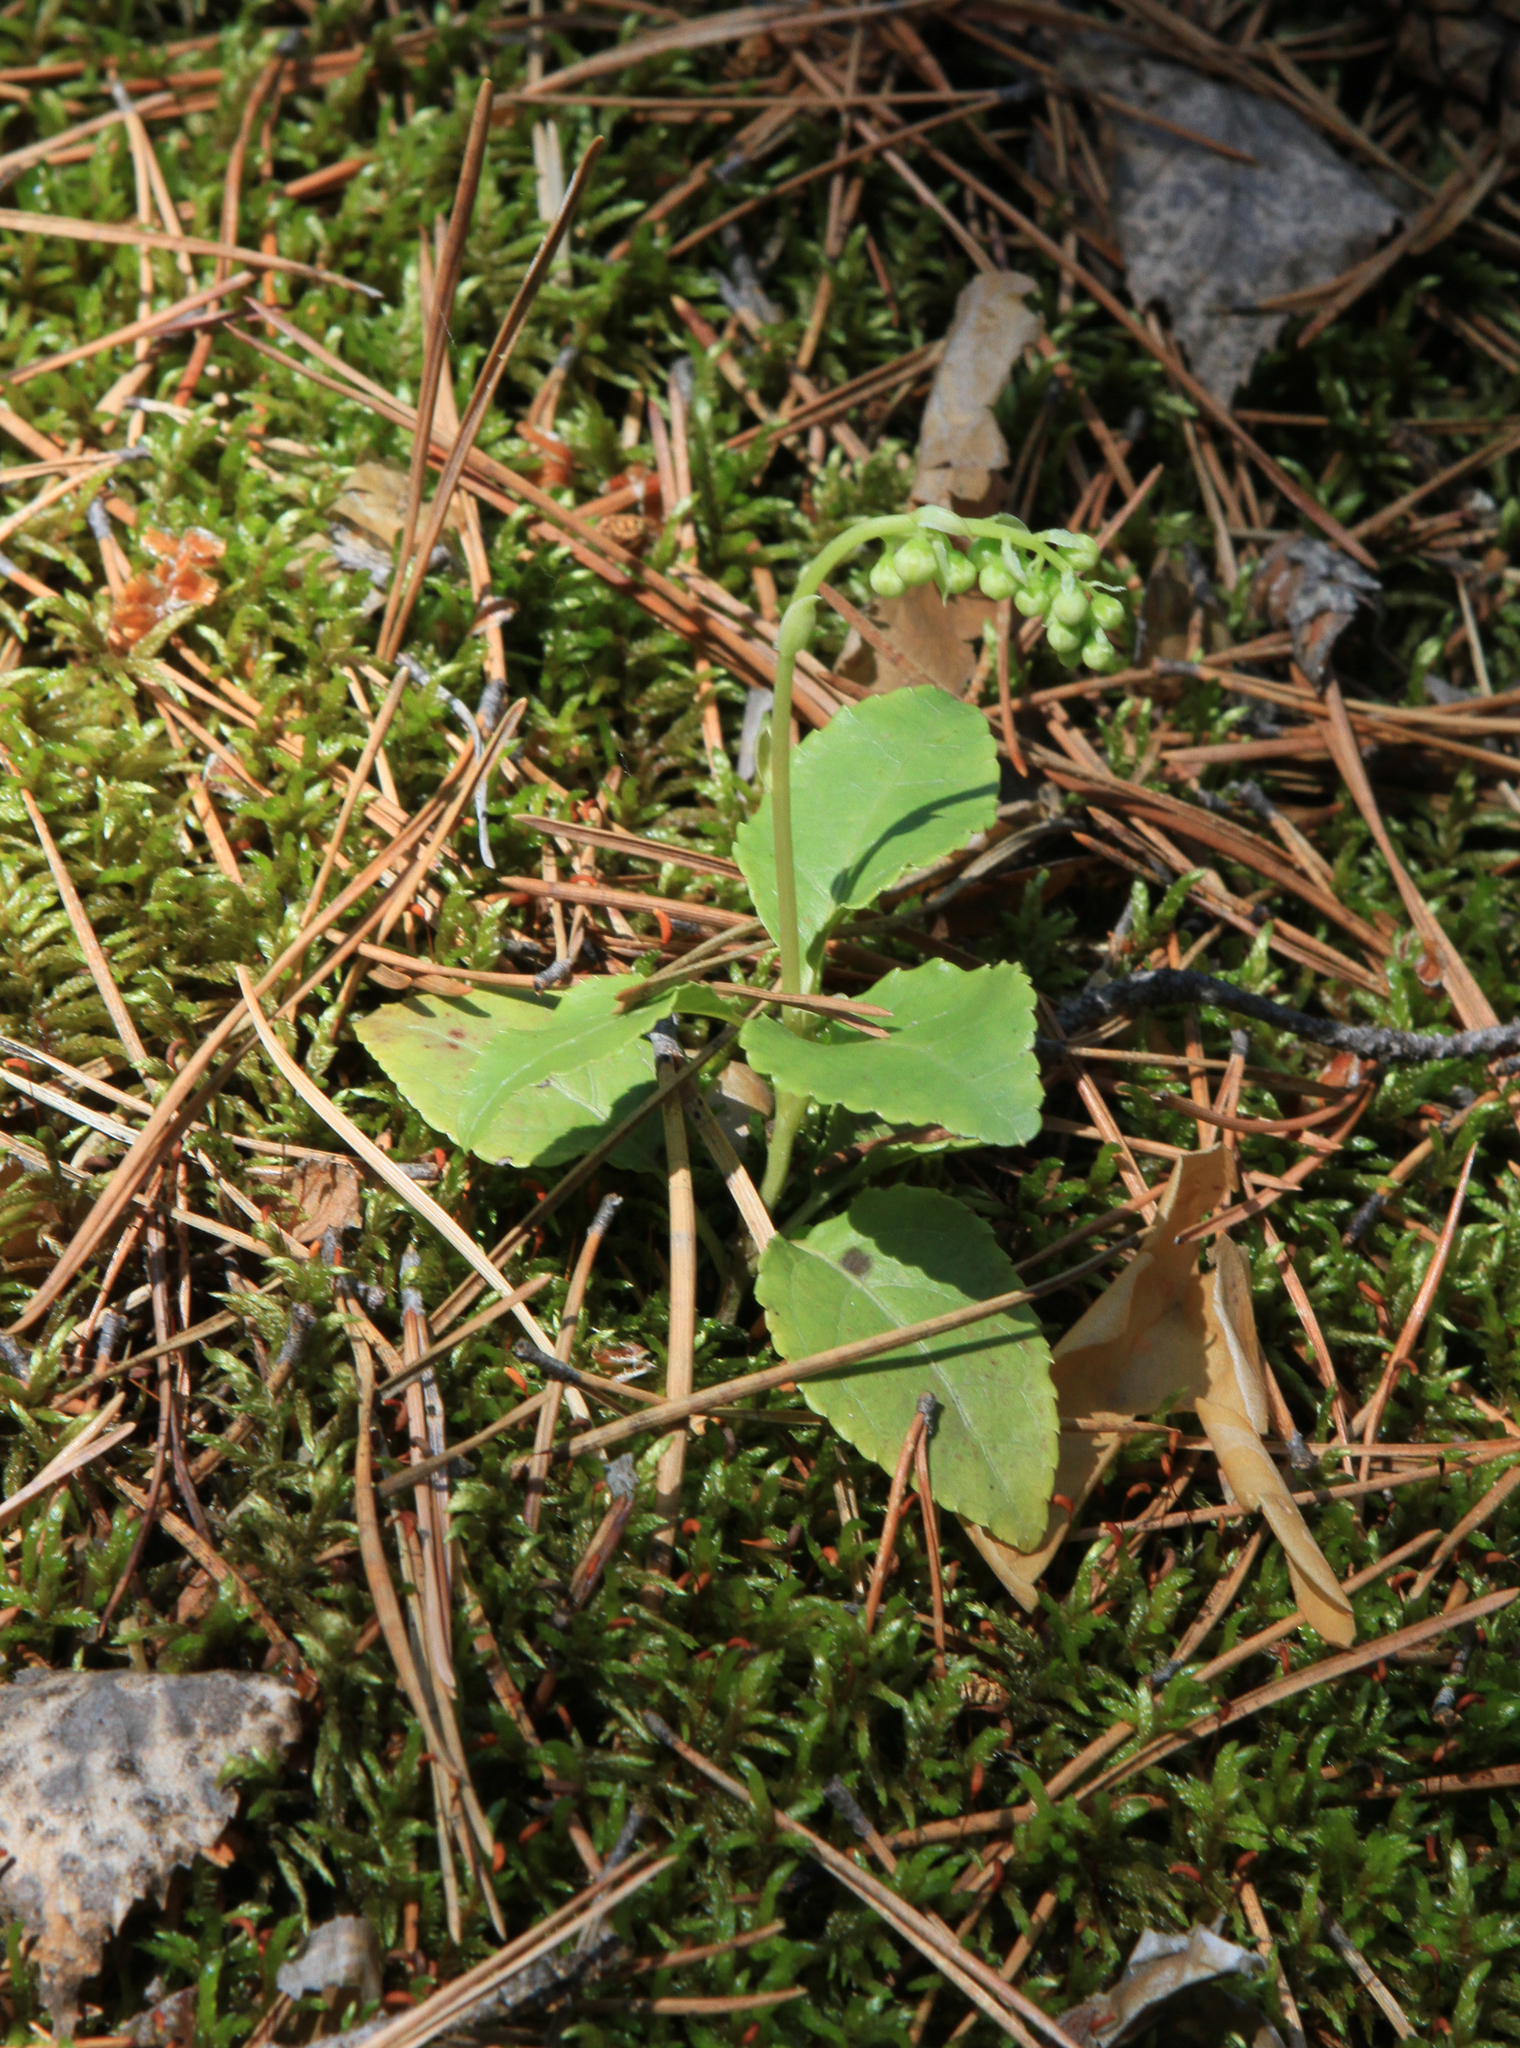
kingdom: Plantae
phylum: Tracheophyta
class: Magnoliopsida
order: Ericales
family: Ericaceae
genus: Orthilia
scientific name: Orthilia secunda
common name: One-sided orthilia
